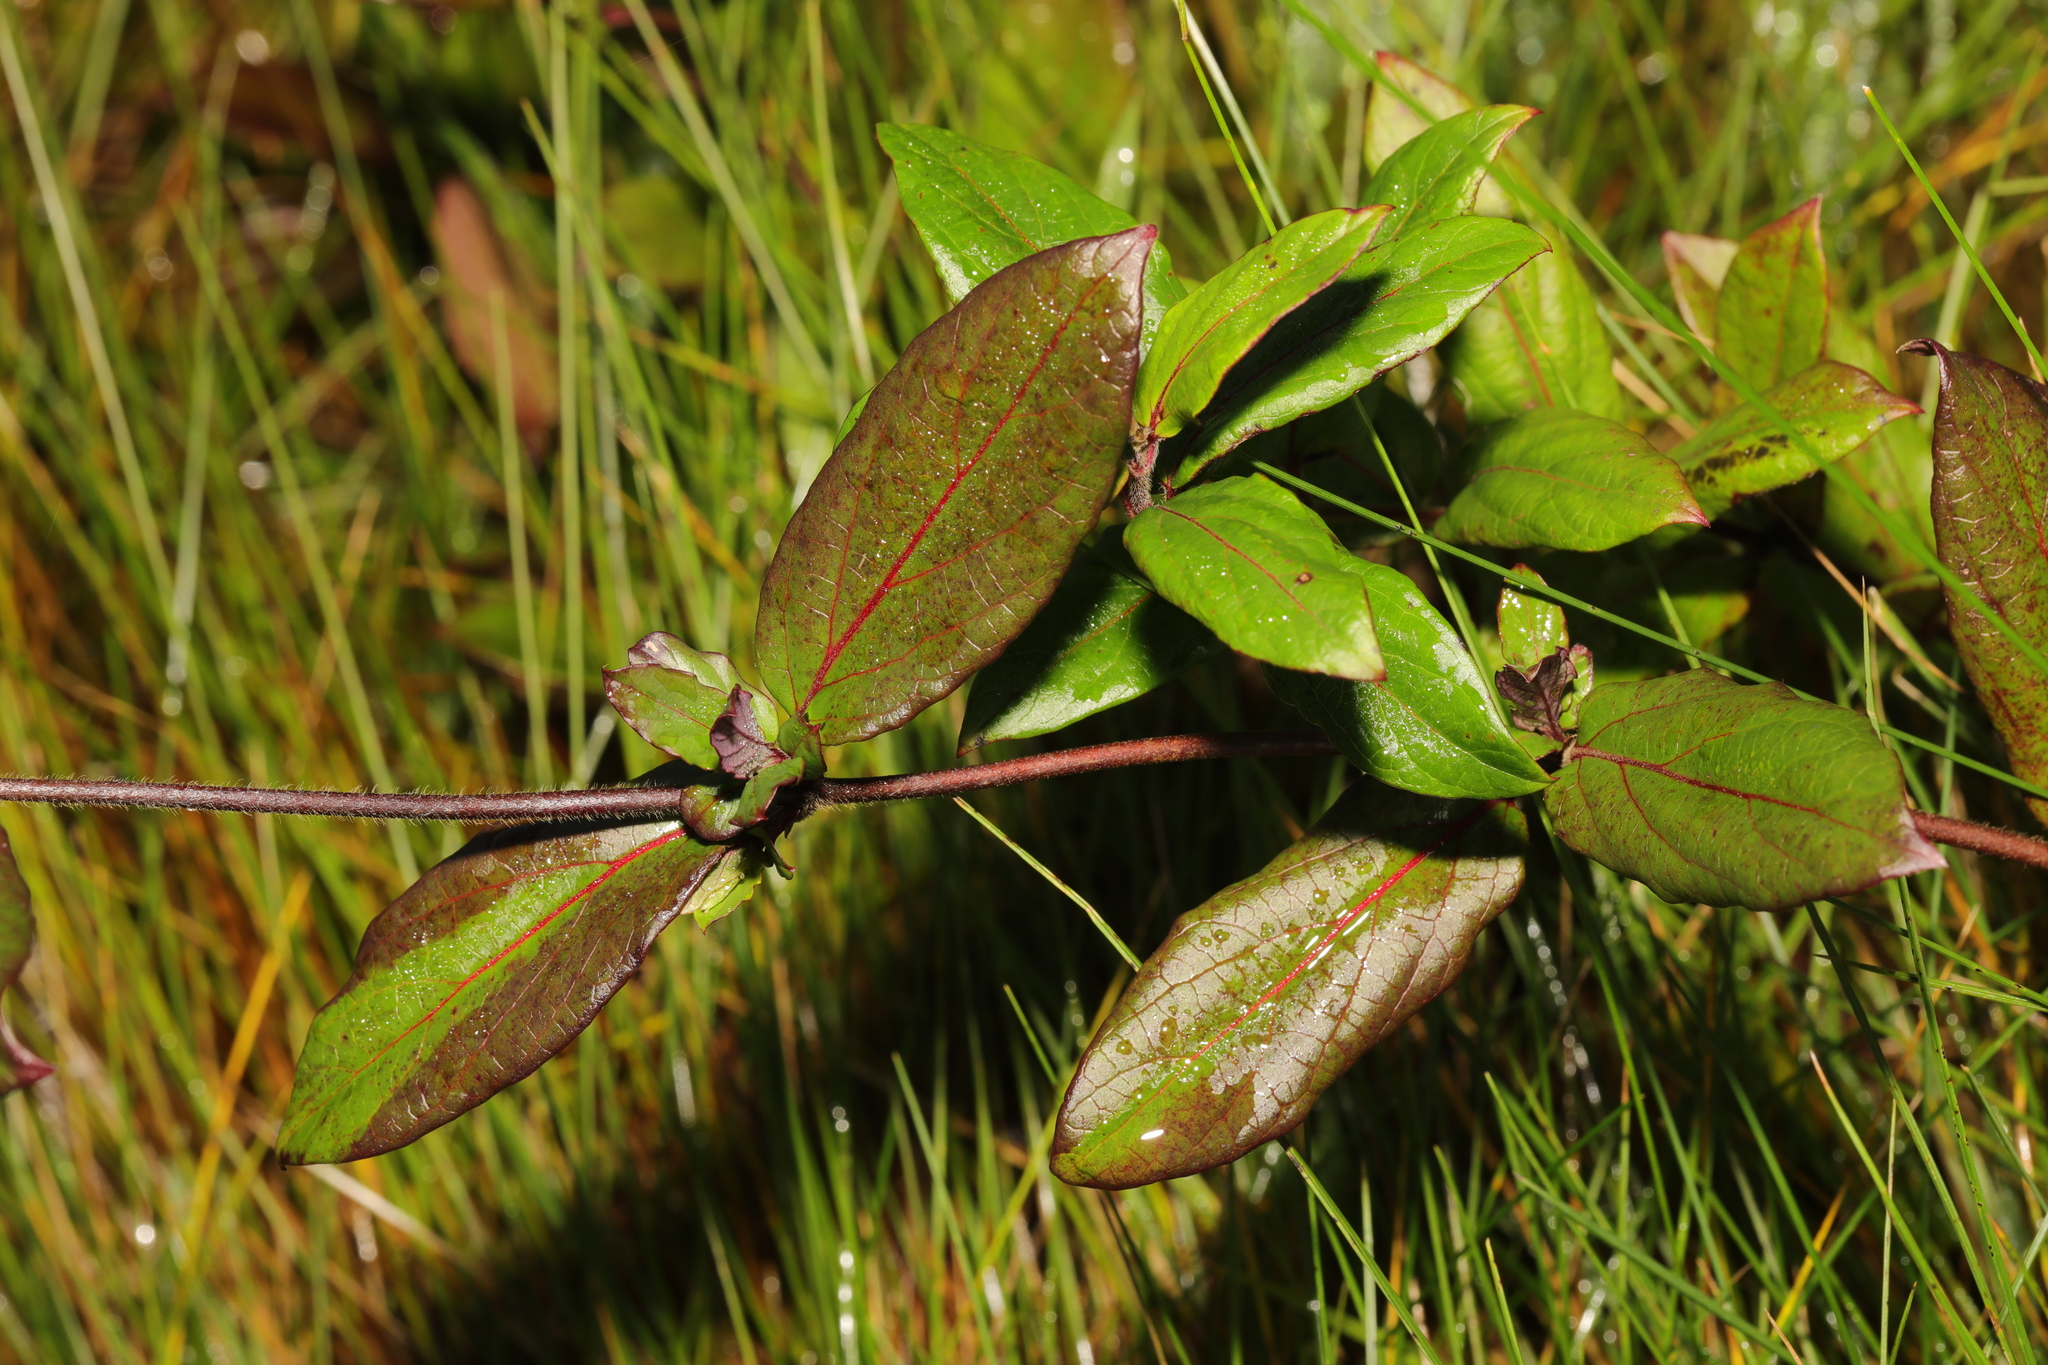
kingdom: Plantae
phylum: Tracheophyta
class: Magnoliopsida
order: Dipsacales
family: Caprifoliaceae
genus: Lonicera
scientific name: Lonicera japonica
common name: Japanese honeysuckle
